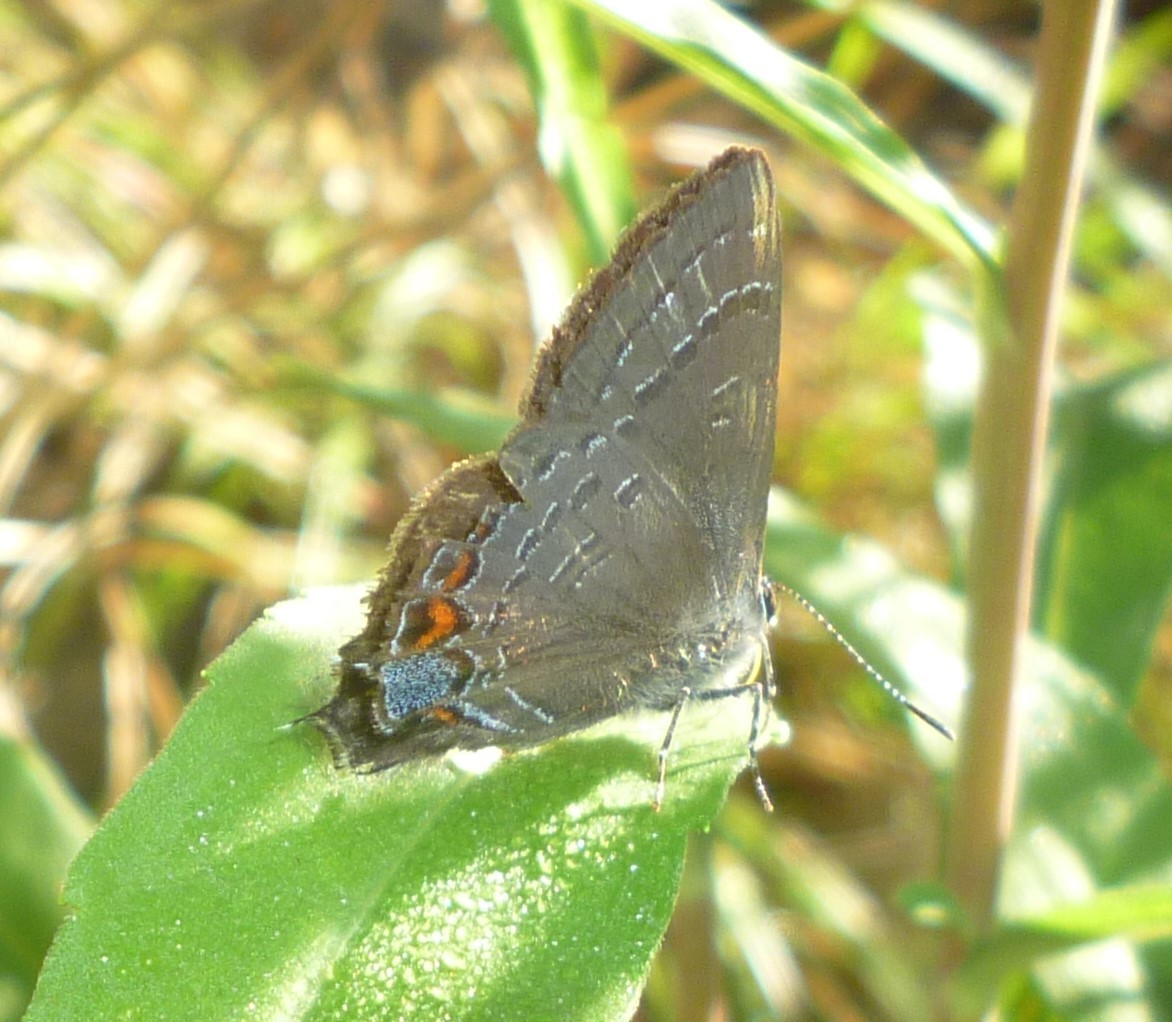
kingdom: Animalia
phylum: Arthropoda
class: Insecta
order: Lepidoptera
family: Lycaenidae
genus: Satyrium
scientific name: Satyrium calanus
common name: Banded hairstreak
